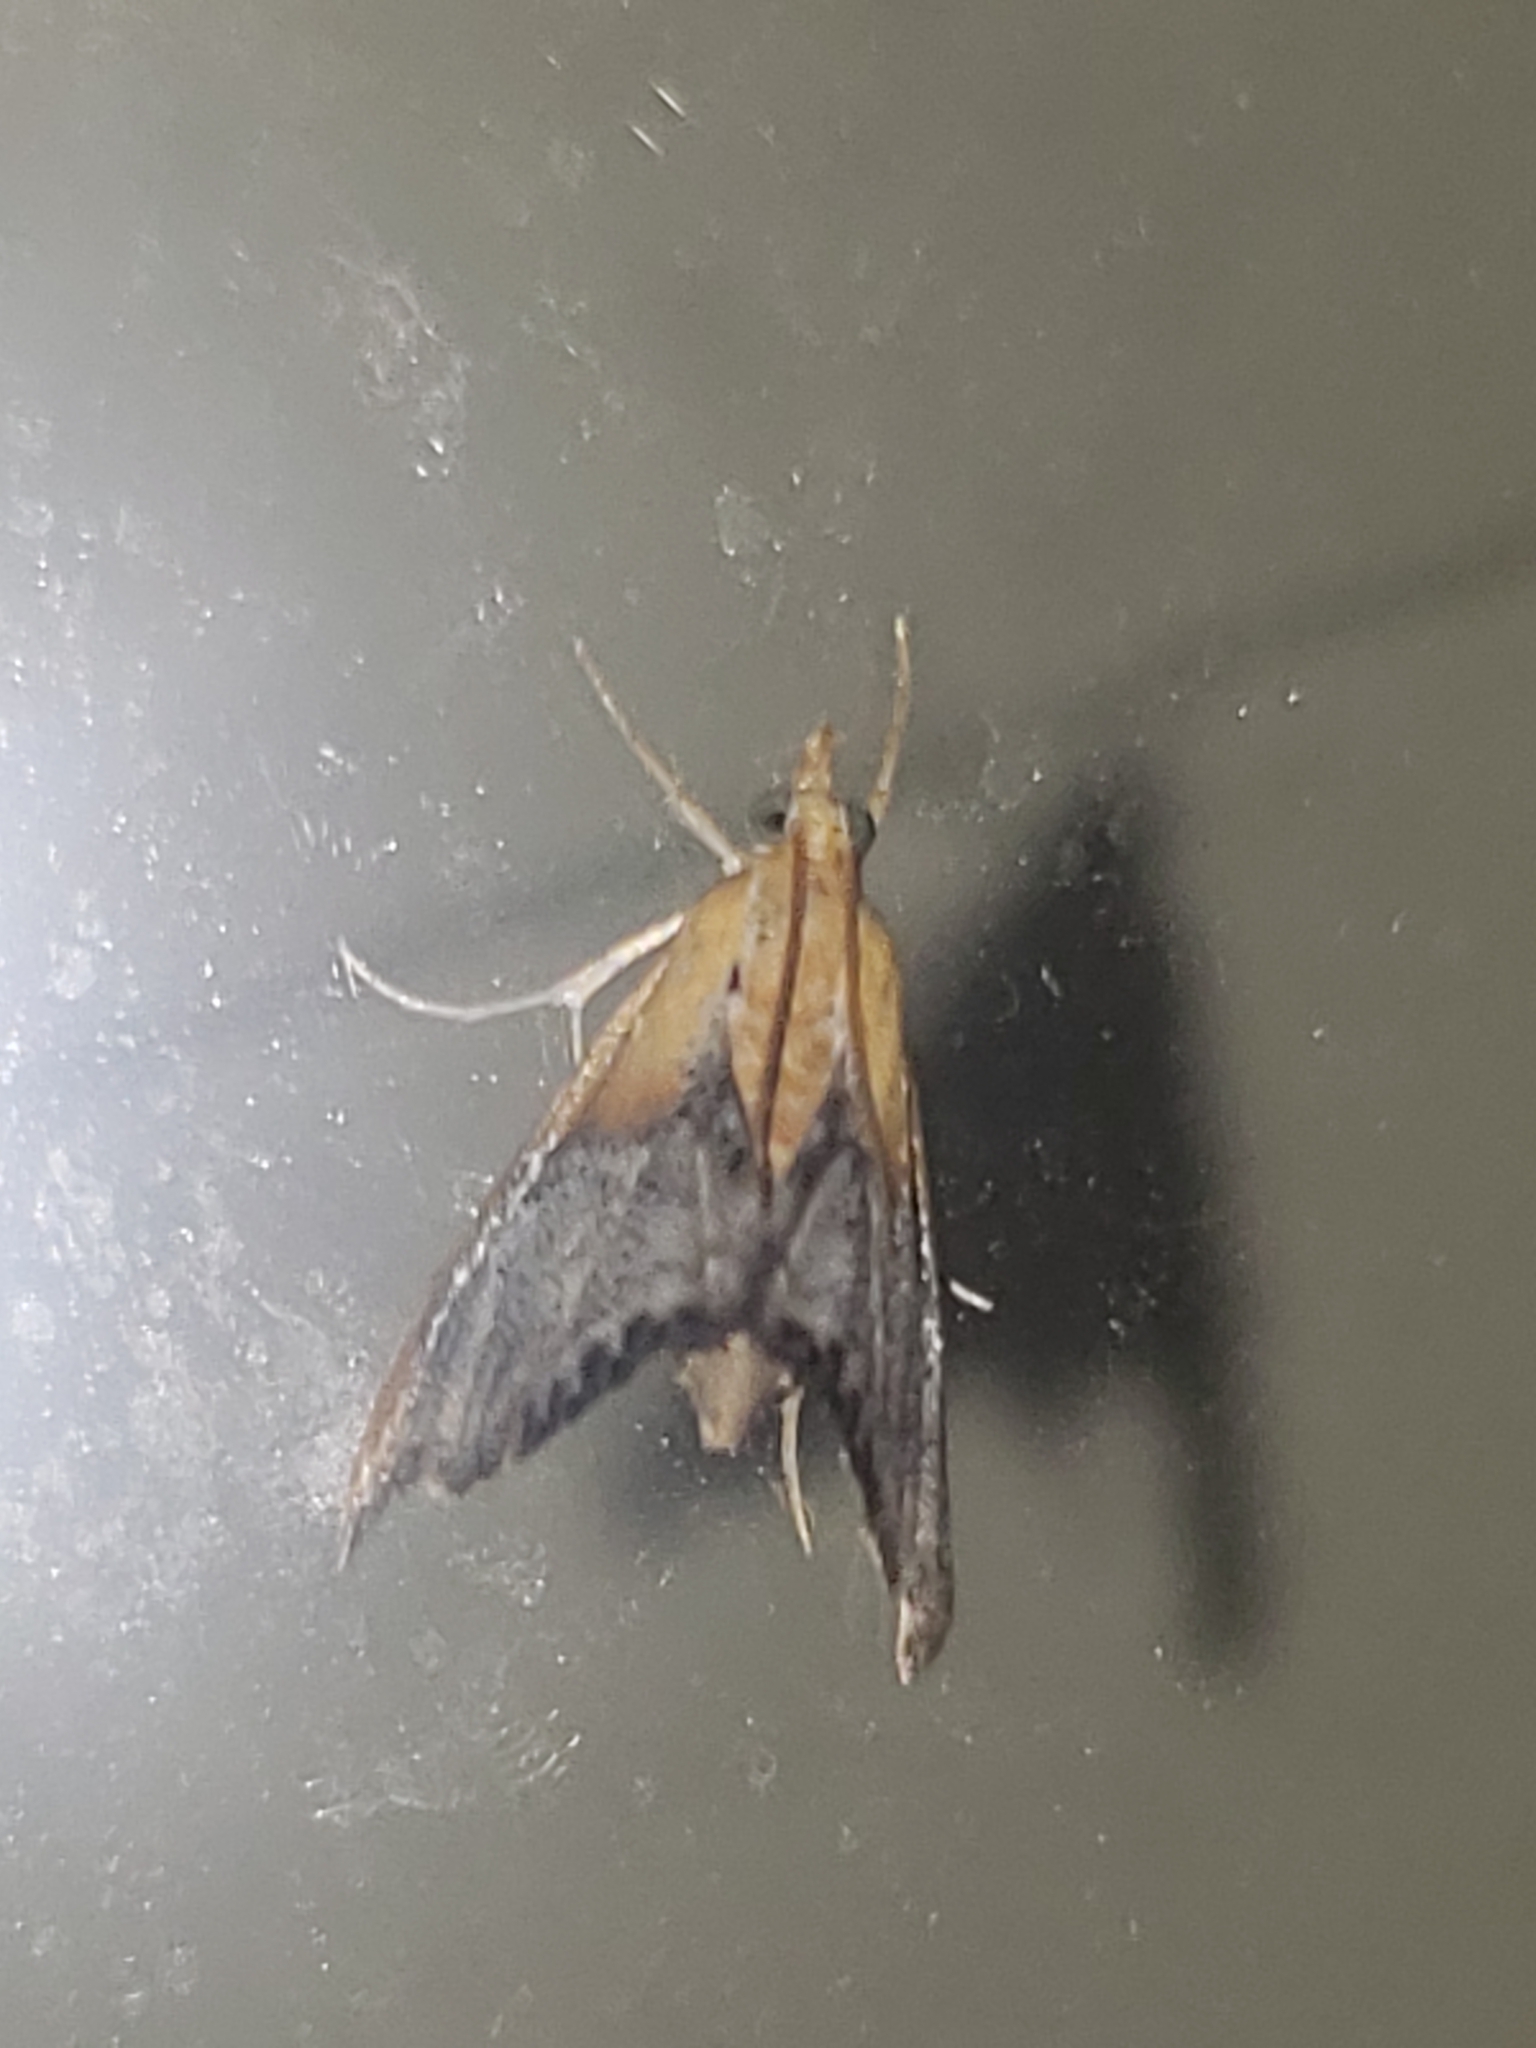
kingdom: Animalia
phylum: Arthropoda
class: Insecta
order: Lepidoptera
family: Crambidae
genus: Chalcoela
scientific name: Chalcoela iphitalis
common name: Sooty-winged chalcoela moth
